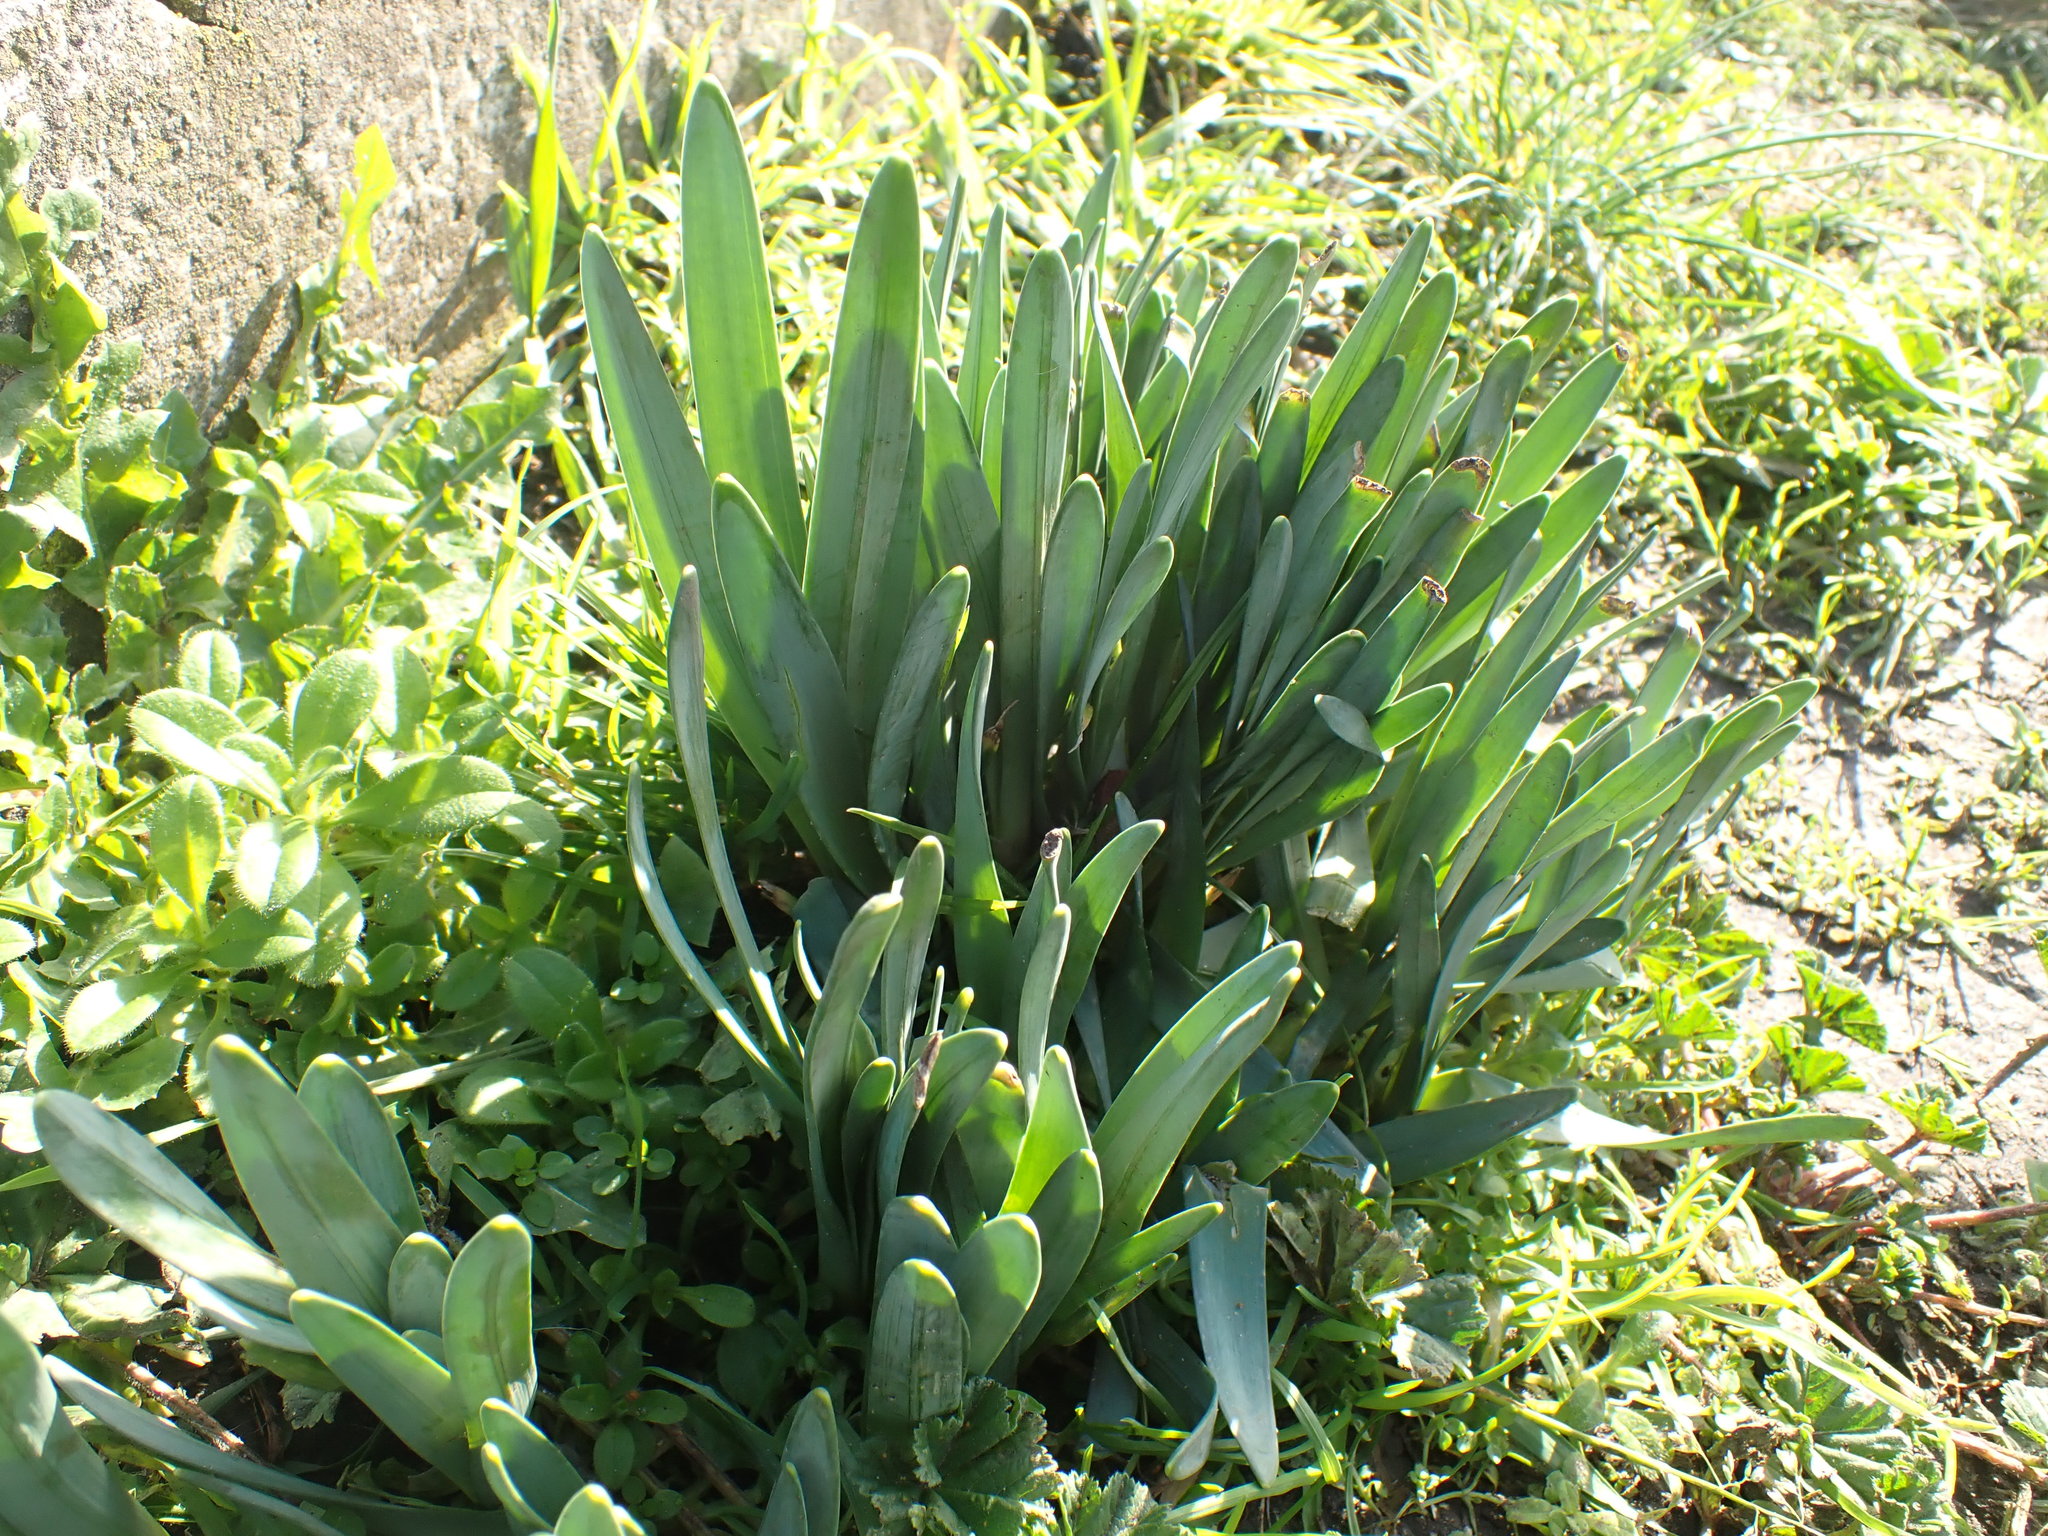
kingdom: Plantae
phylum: Tracheophyta
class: Liliopsida
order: Asparagales
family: Amaryllidaceae
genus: Galanthus
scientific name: Galanthus nivalis
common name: Snowdrop
